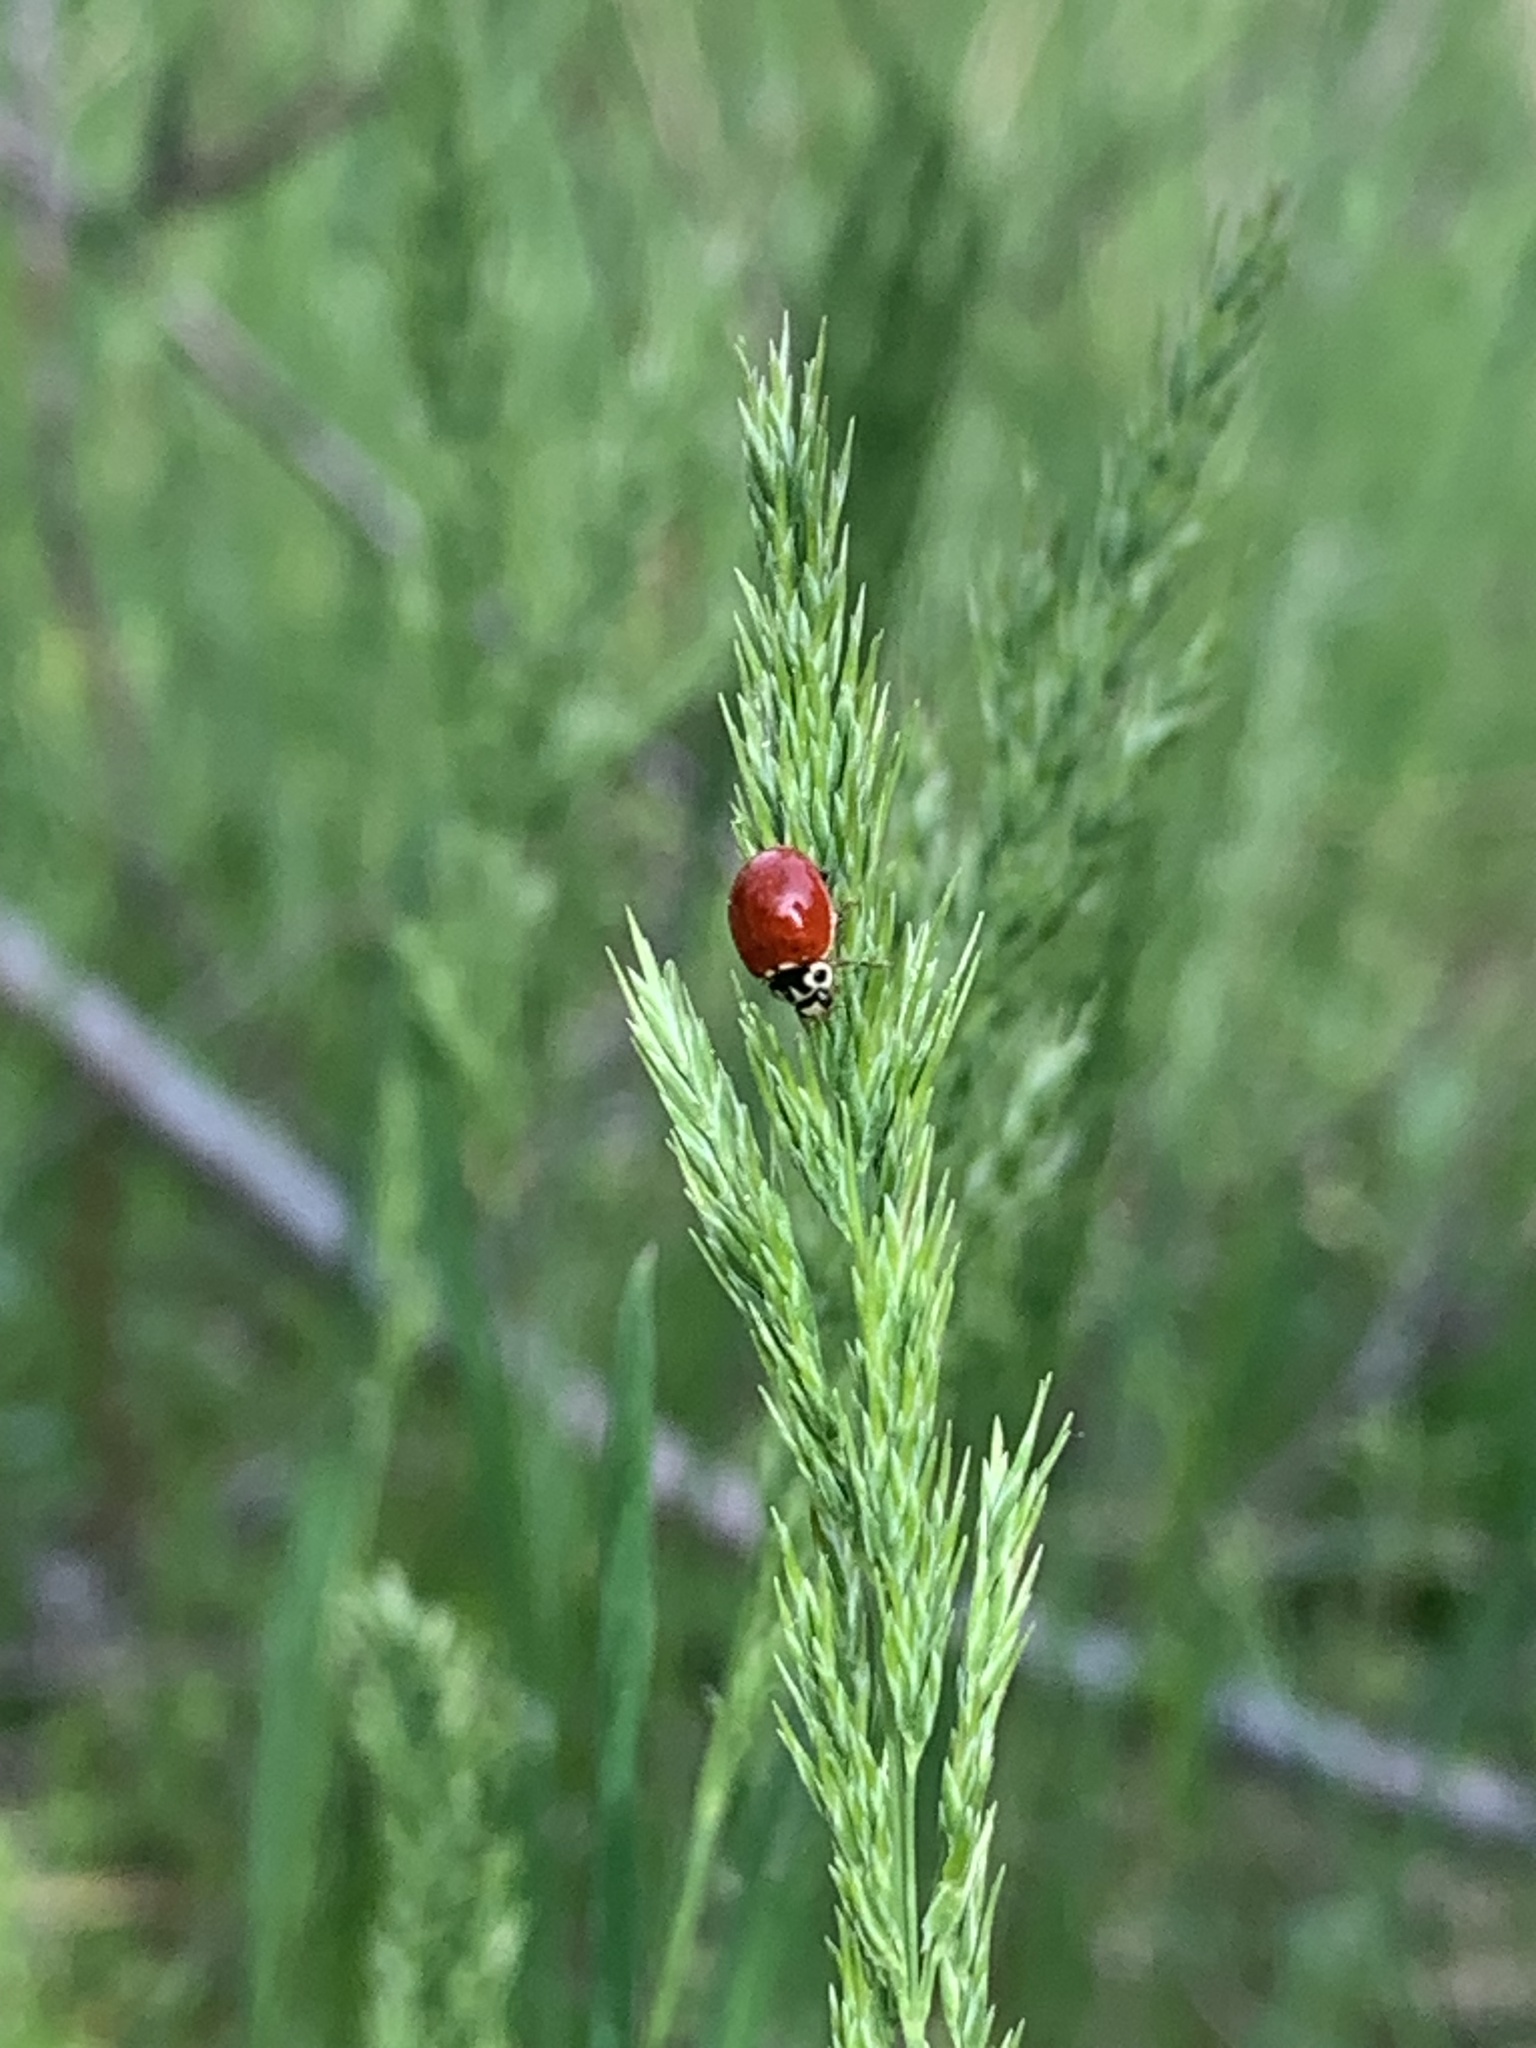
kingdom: Animalia
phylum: Arthropoda
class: Insecta
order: Coleoptera
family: Coccinellidae
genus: Cycloneda
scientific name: Cycloneda polita
